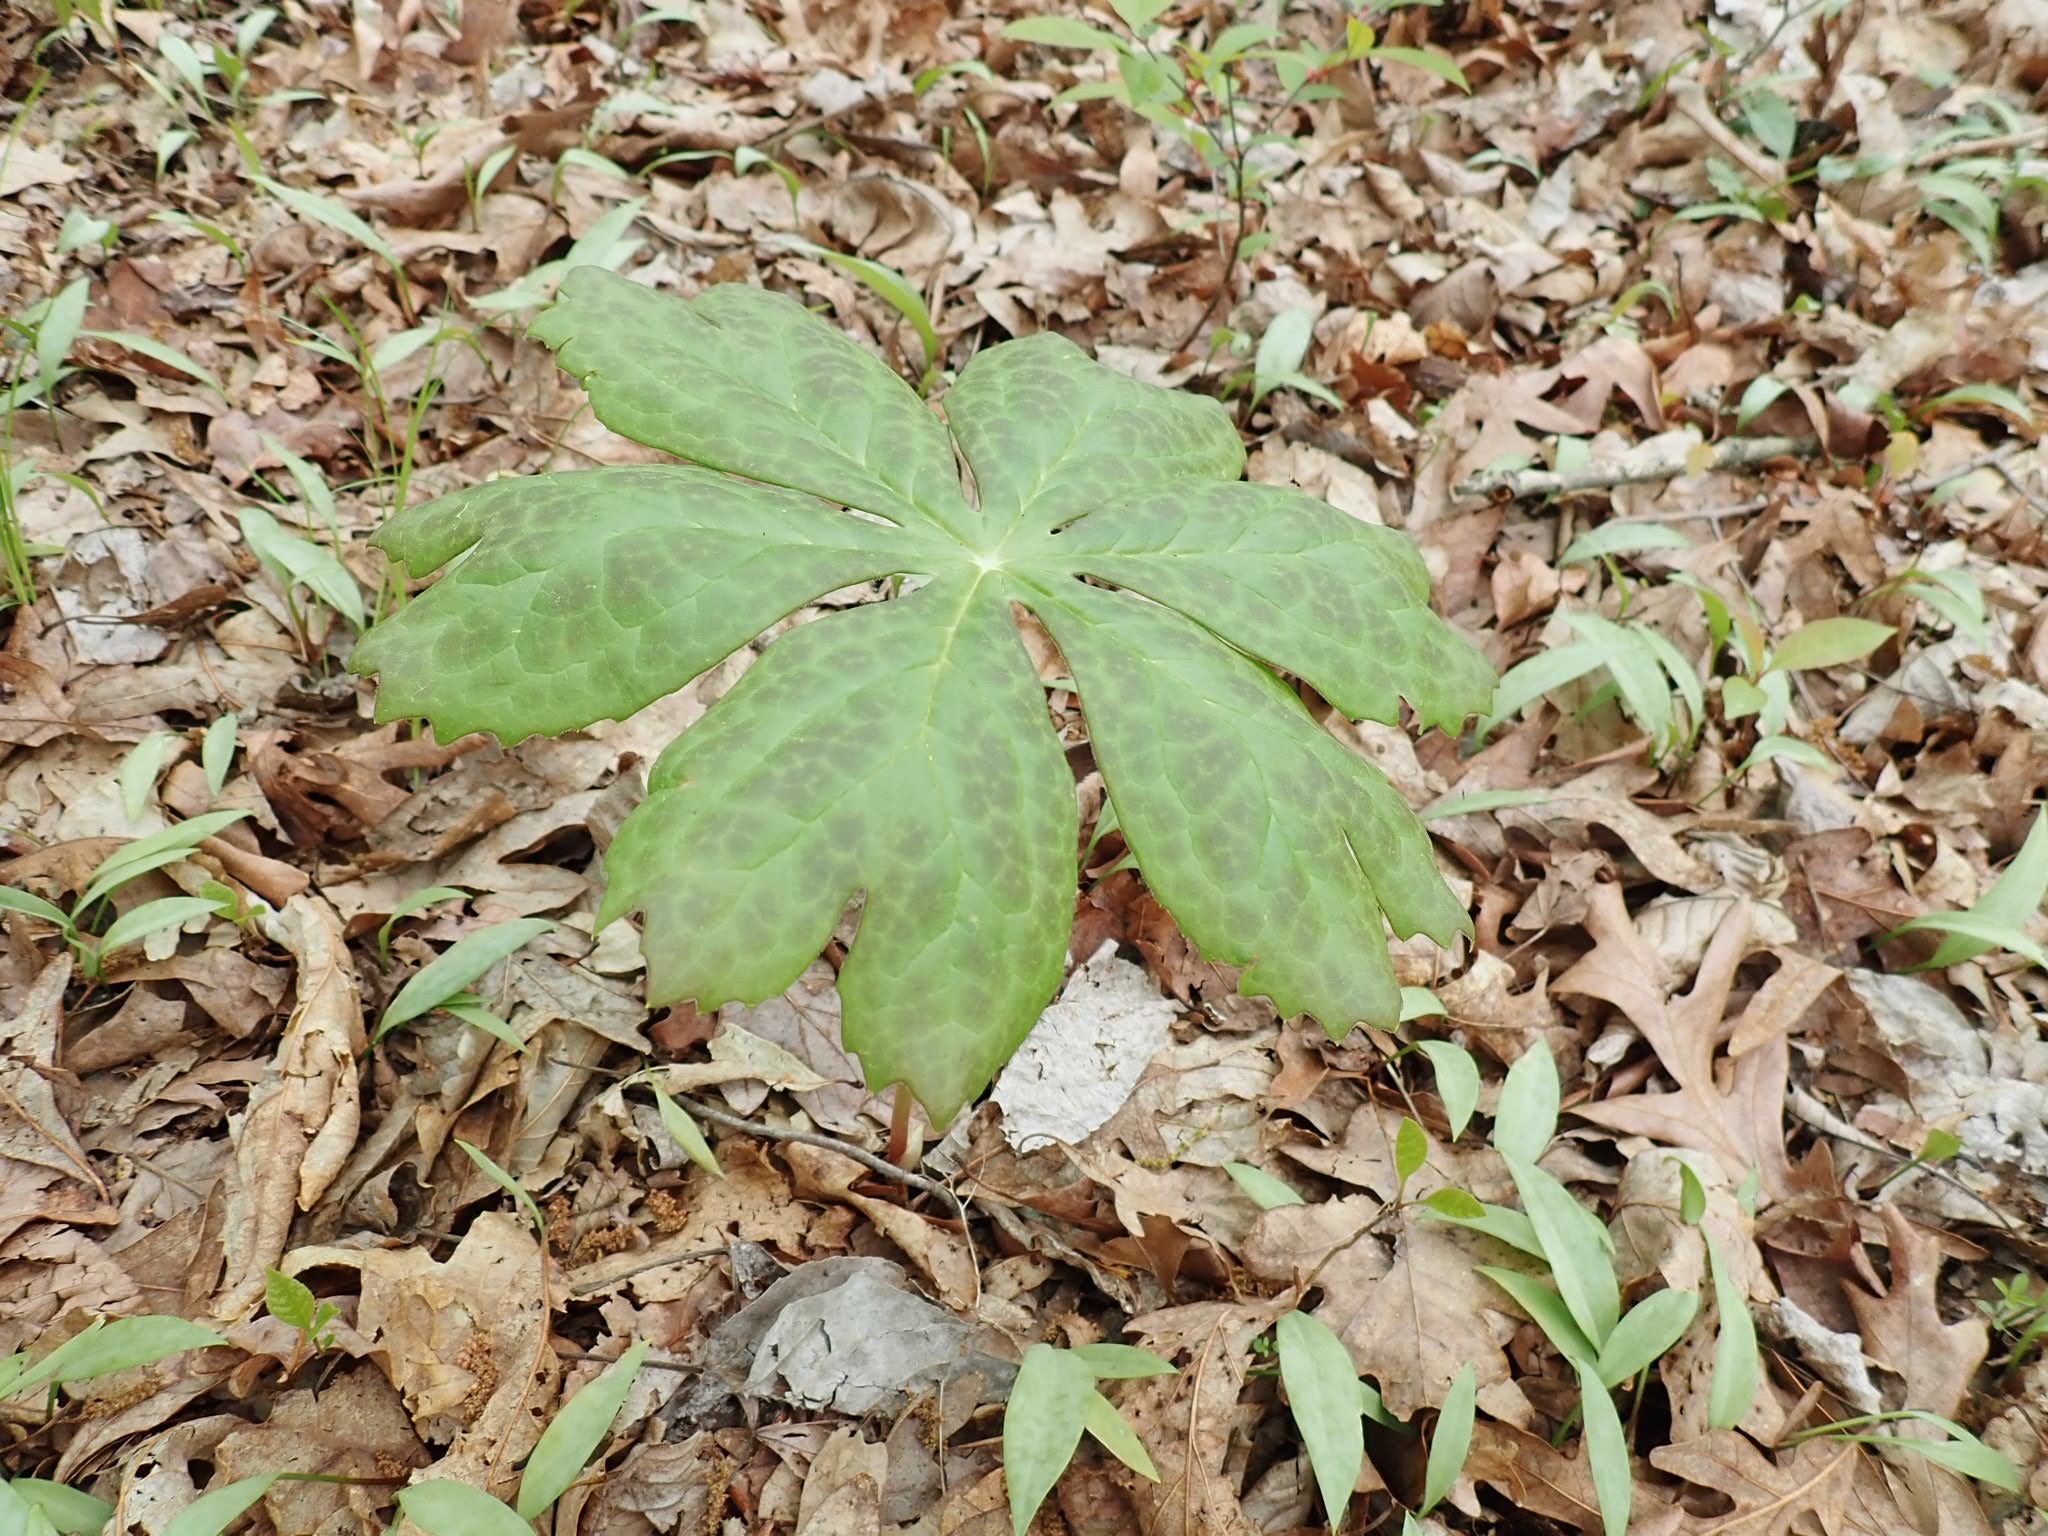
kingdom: Plantae
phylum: Tracheophyta
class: Magnoliopsida
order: Ranunculales
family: Berberidaceae
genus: Podophyllum
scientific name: Podophyllum peltatum
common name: Wild mandrake
